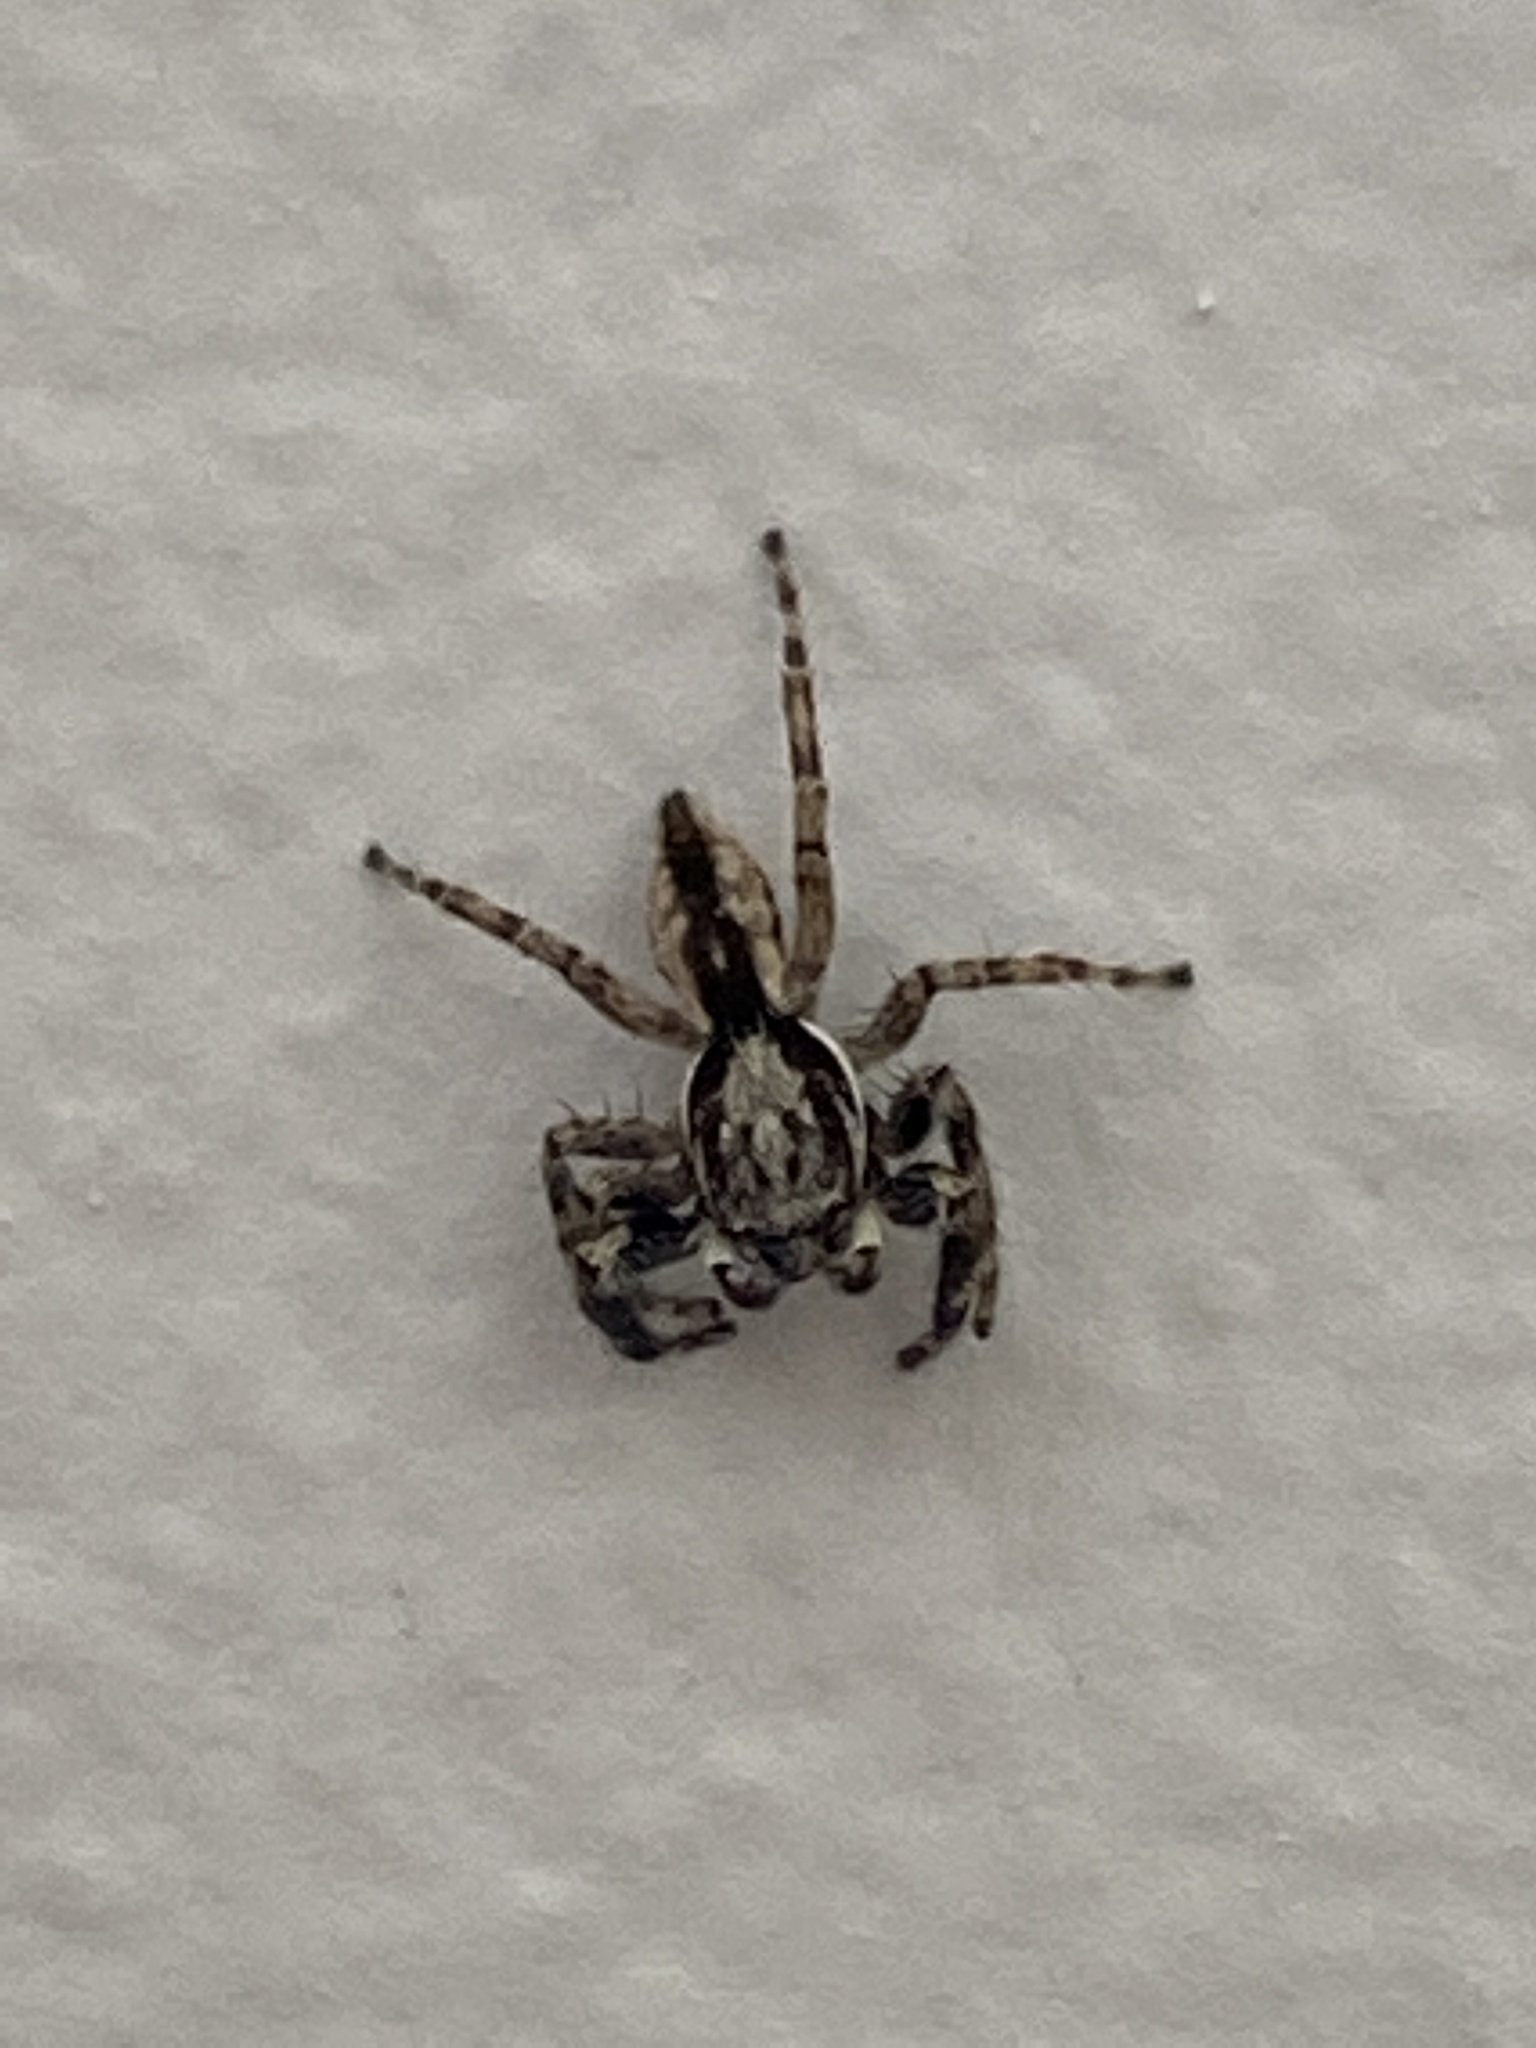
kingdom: Animalia
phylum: Arthropoda
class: Arachnida
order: Araneae
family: Salticidae
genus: Menemerus
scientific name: Menemerus bivittatus
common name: Gray wall jumper
